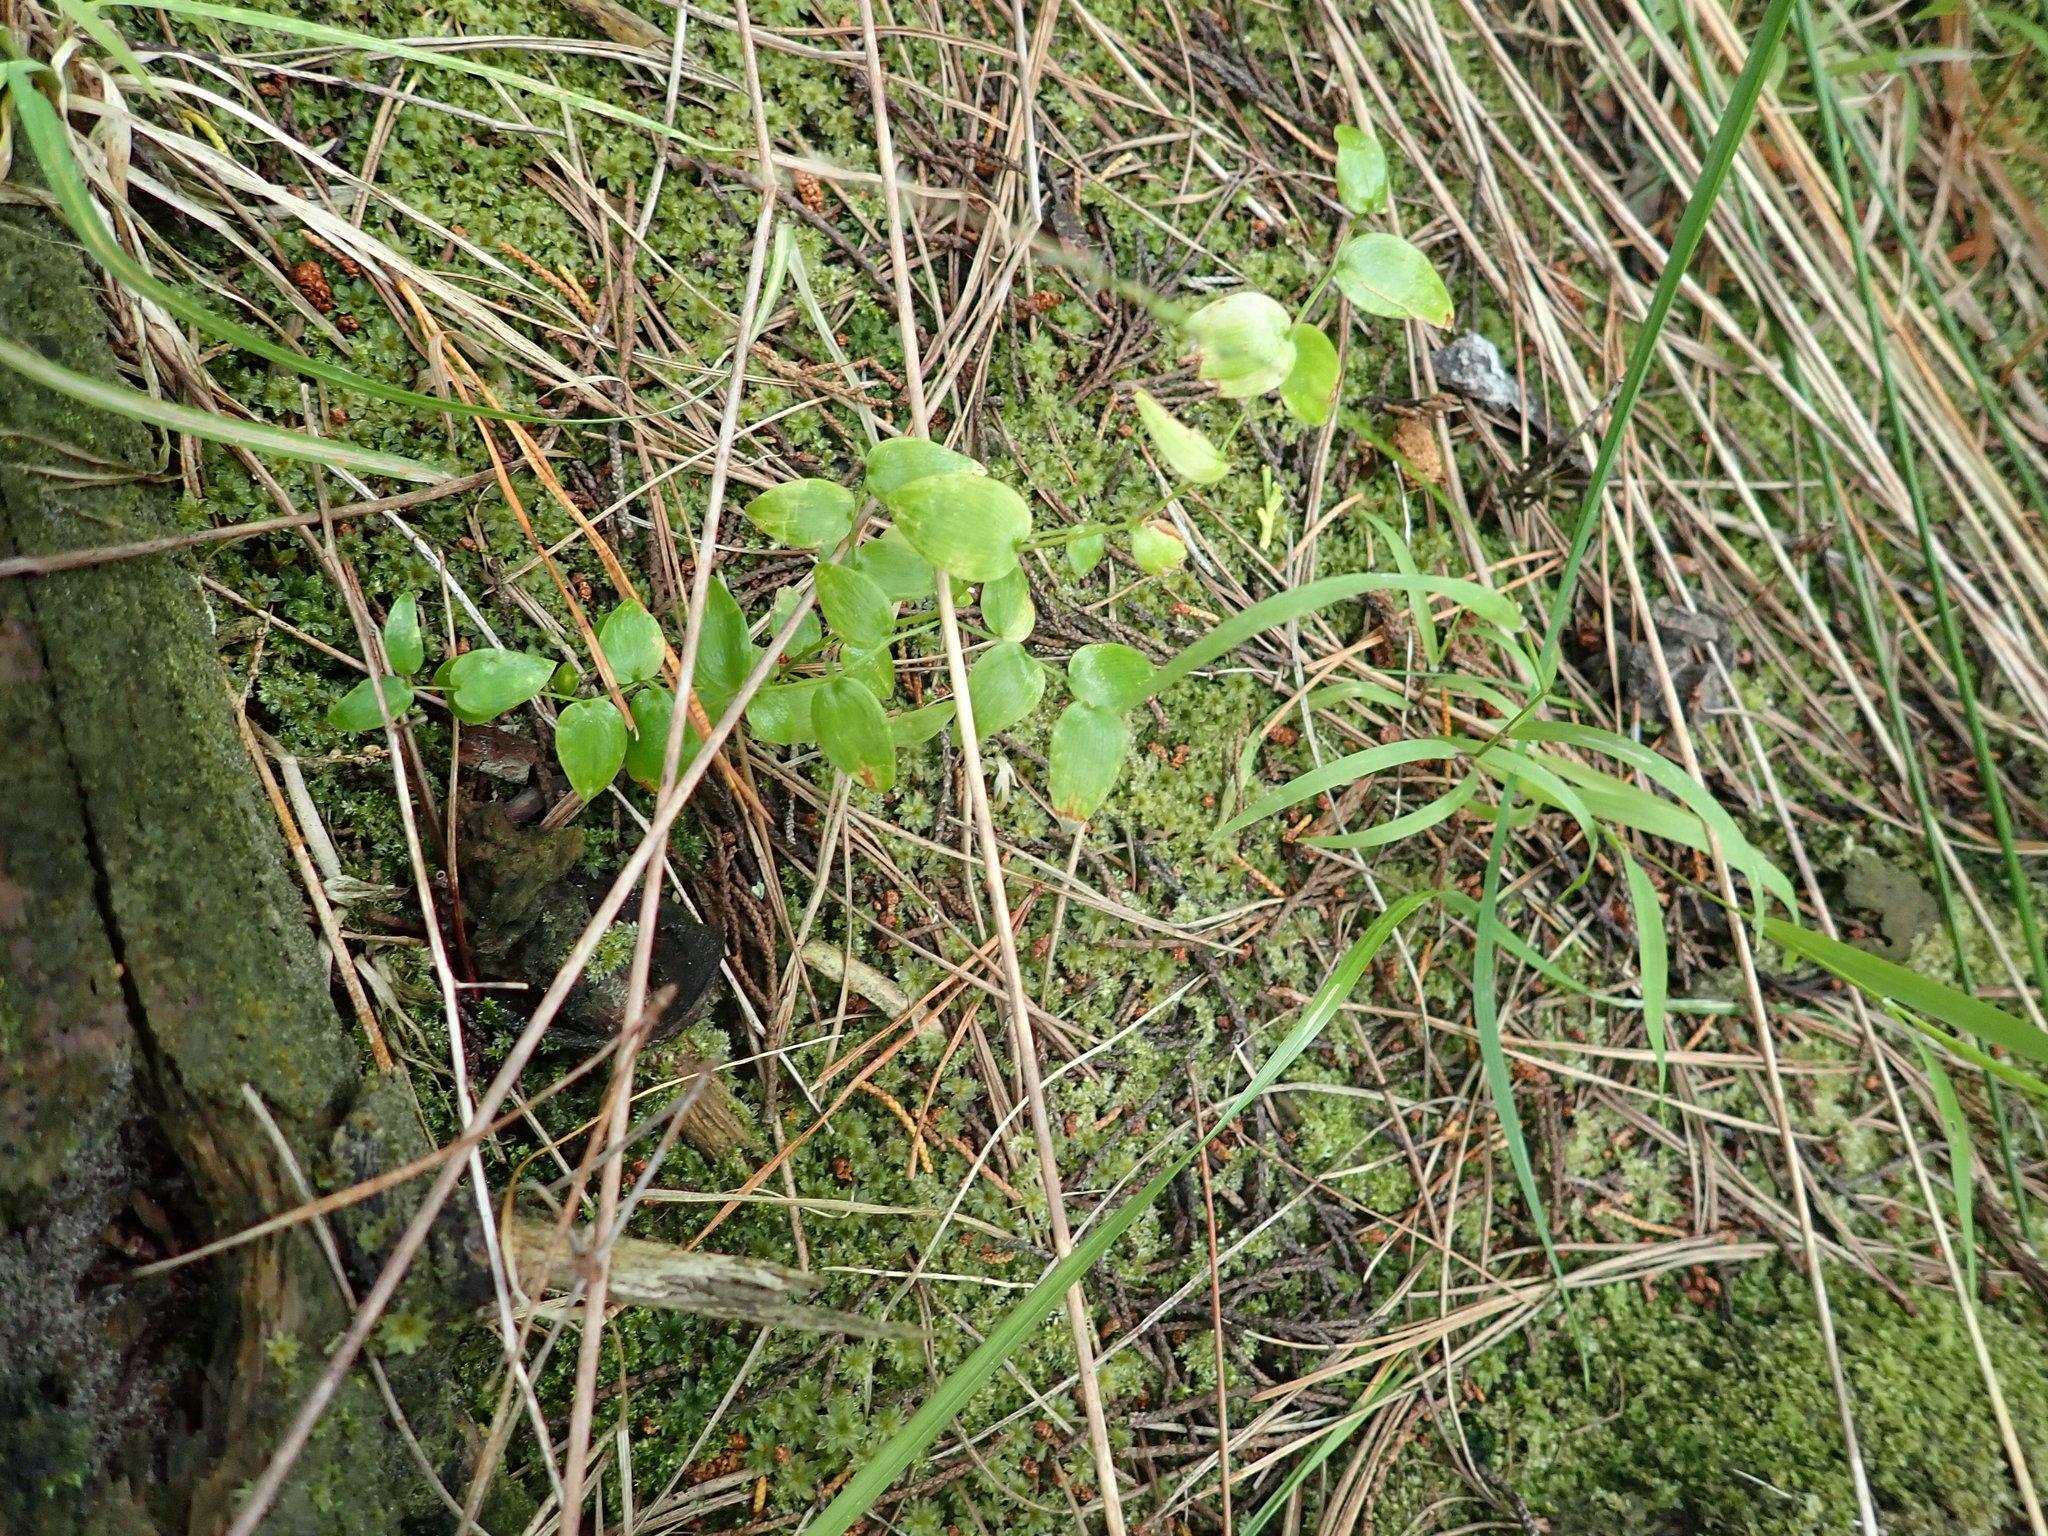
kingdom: Plantae
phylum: Tracheophyta
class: Liliopsida
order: Asparagales
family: Asparagaceae
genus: Asparagus
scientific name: Asparagus asparagoides
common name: African asparagus fern
